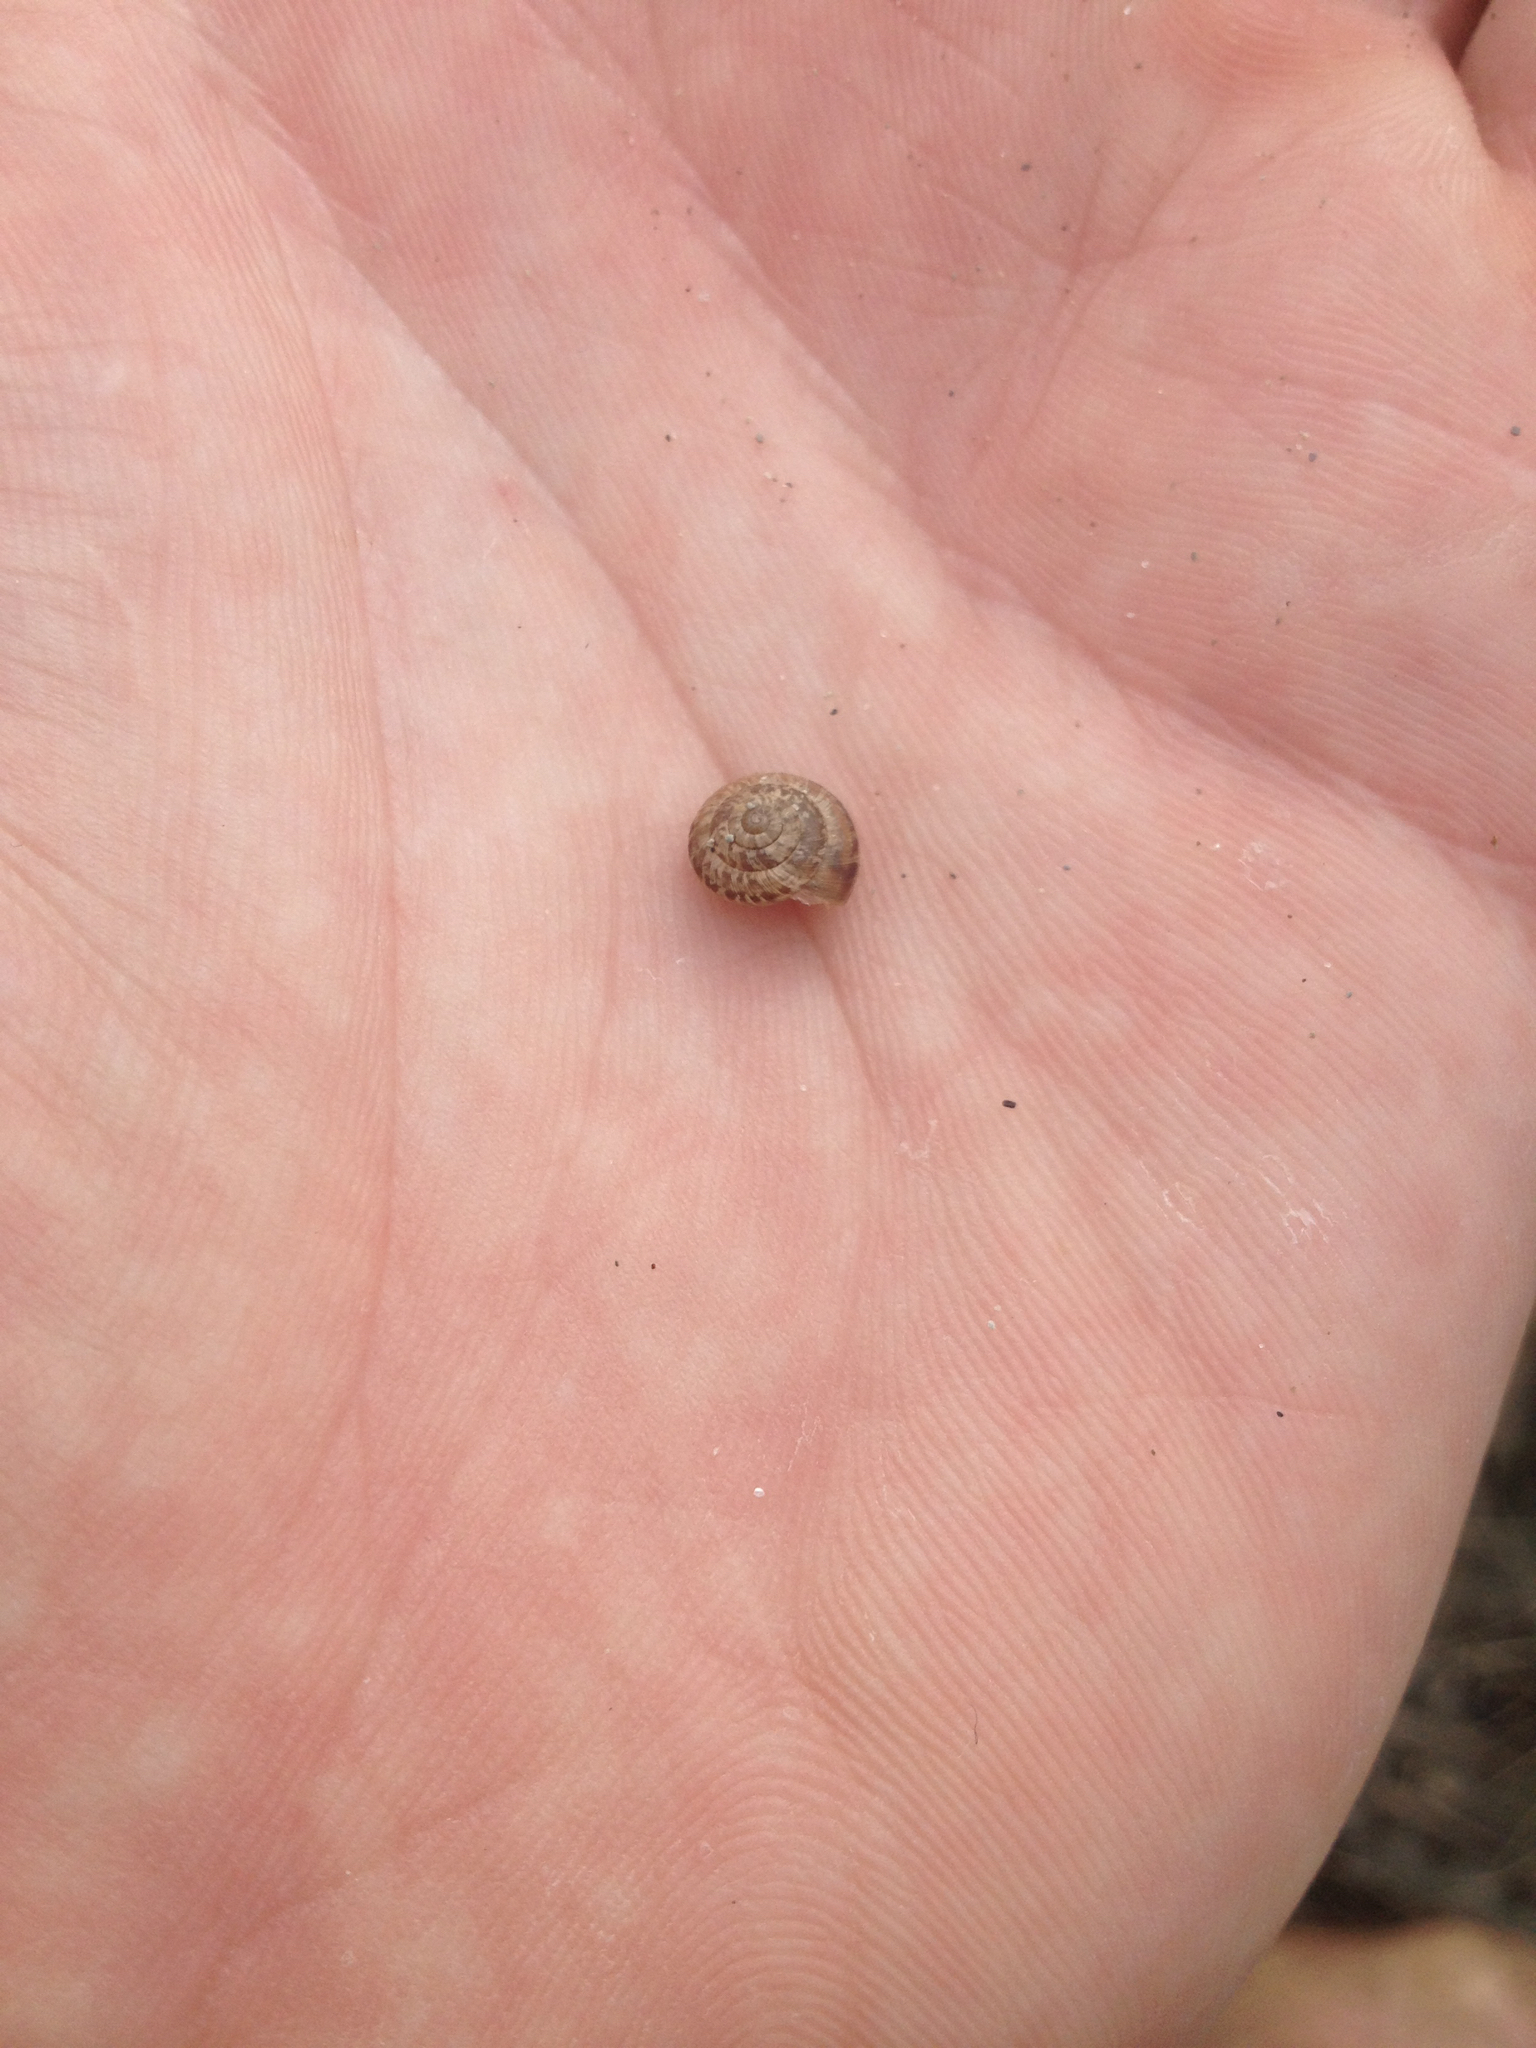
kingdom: Animalia
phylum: Mollusca
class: Gastropoda
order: Stylommatophora
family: Geomitridae
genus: Xeroplexa
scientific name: Xeroplexa intersecta
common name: Wrinkled snail
